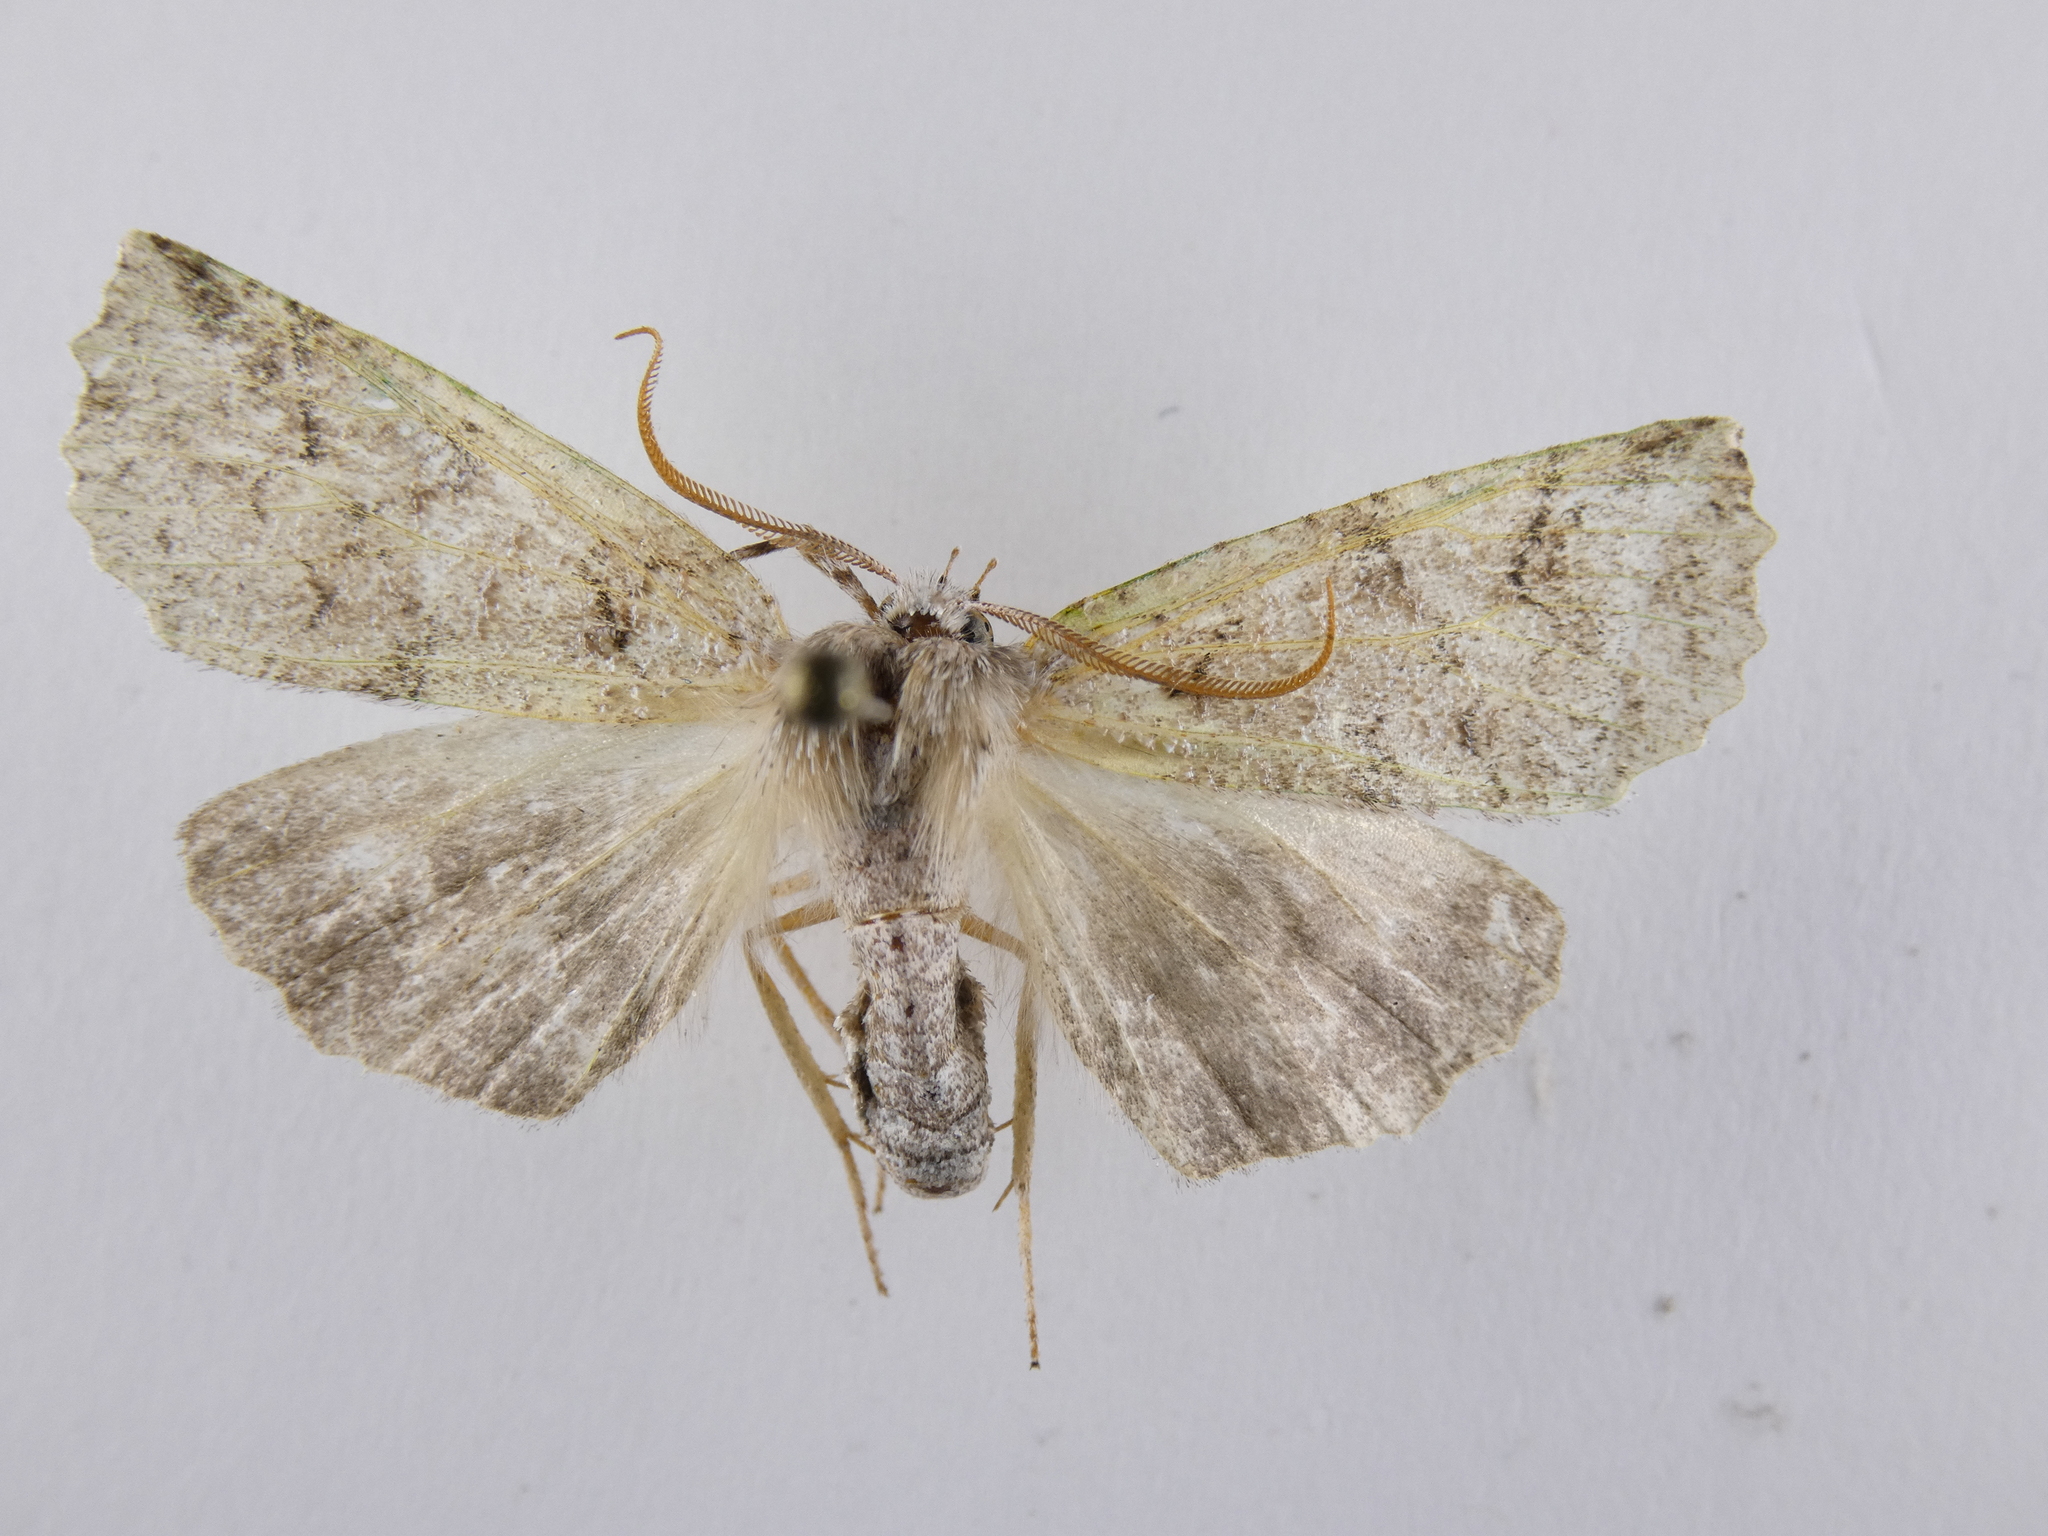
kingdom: Animalia
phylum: Arthropoda
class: Insecta
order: Lepidoptera
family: Geometridae
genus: Declana
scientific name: Declana floccosa
